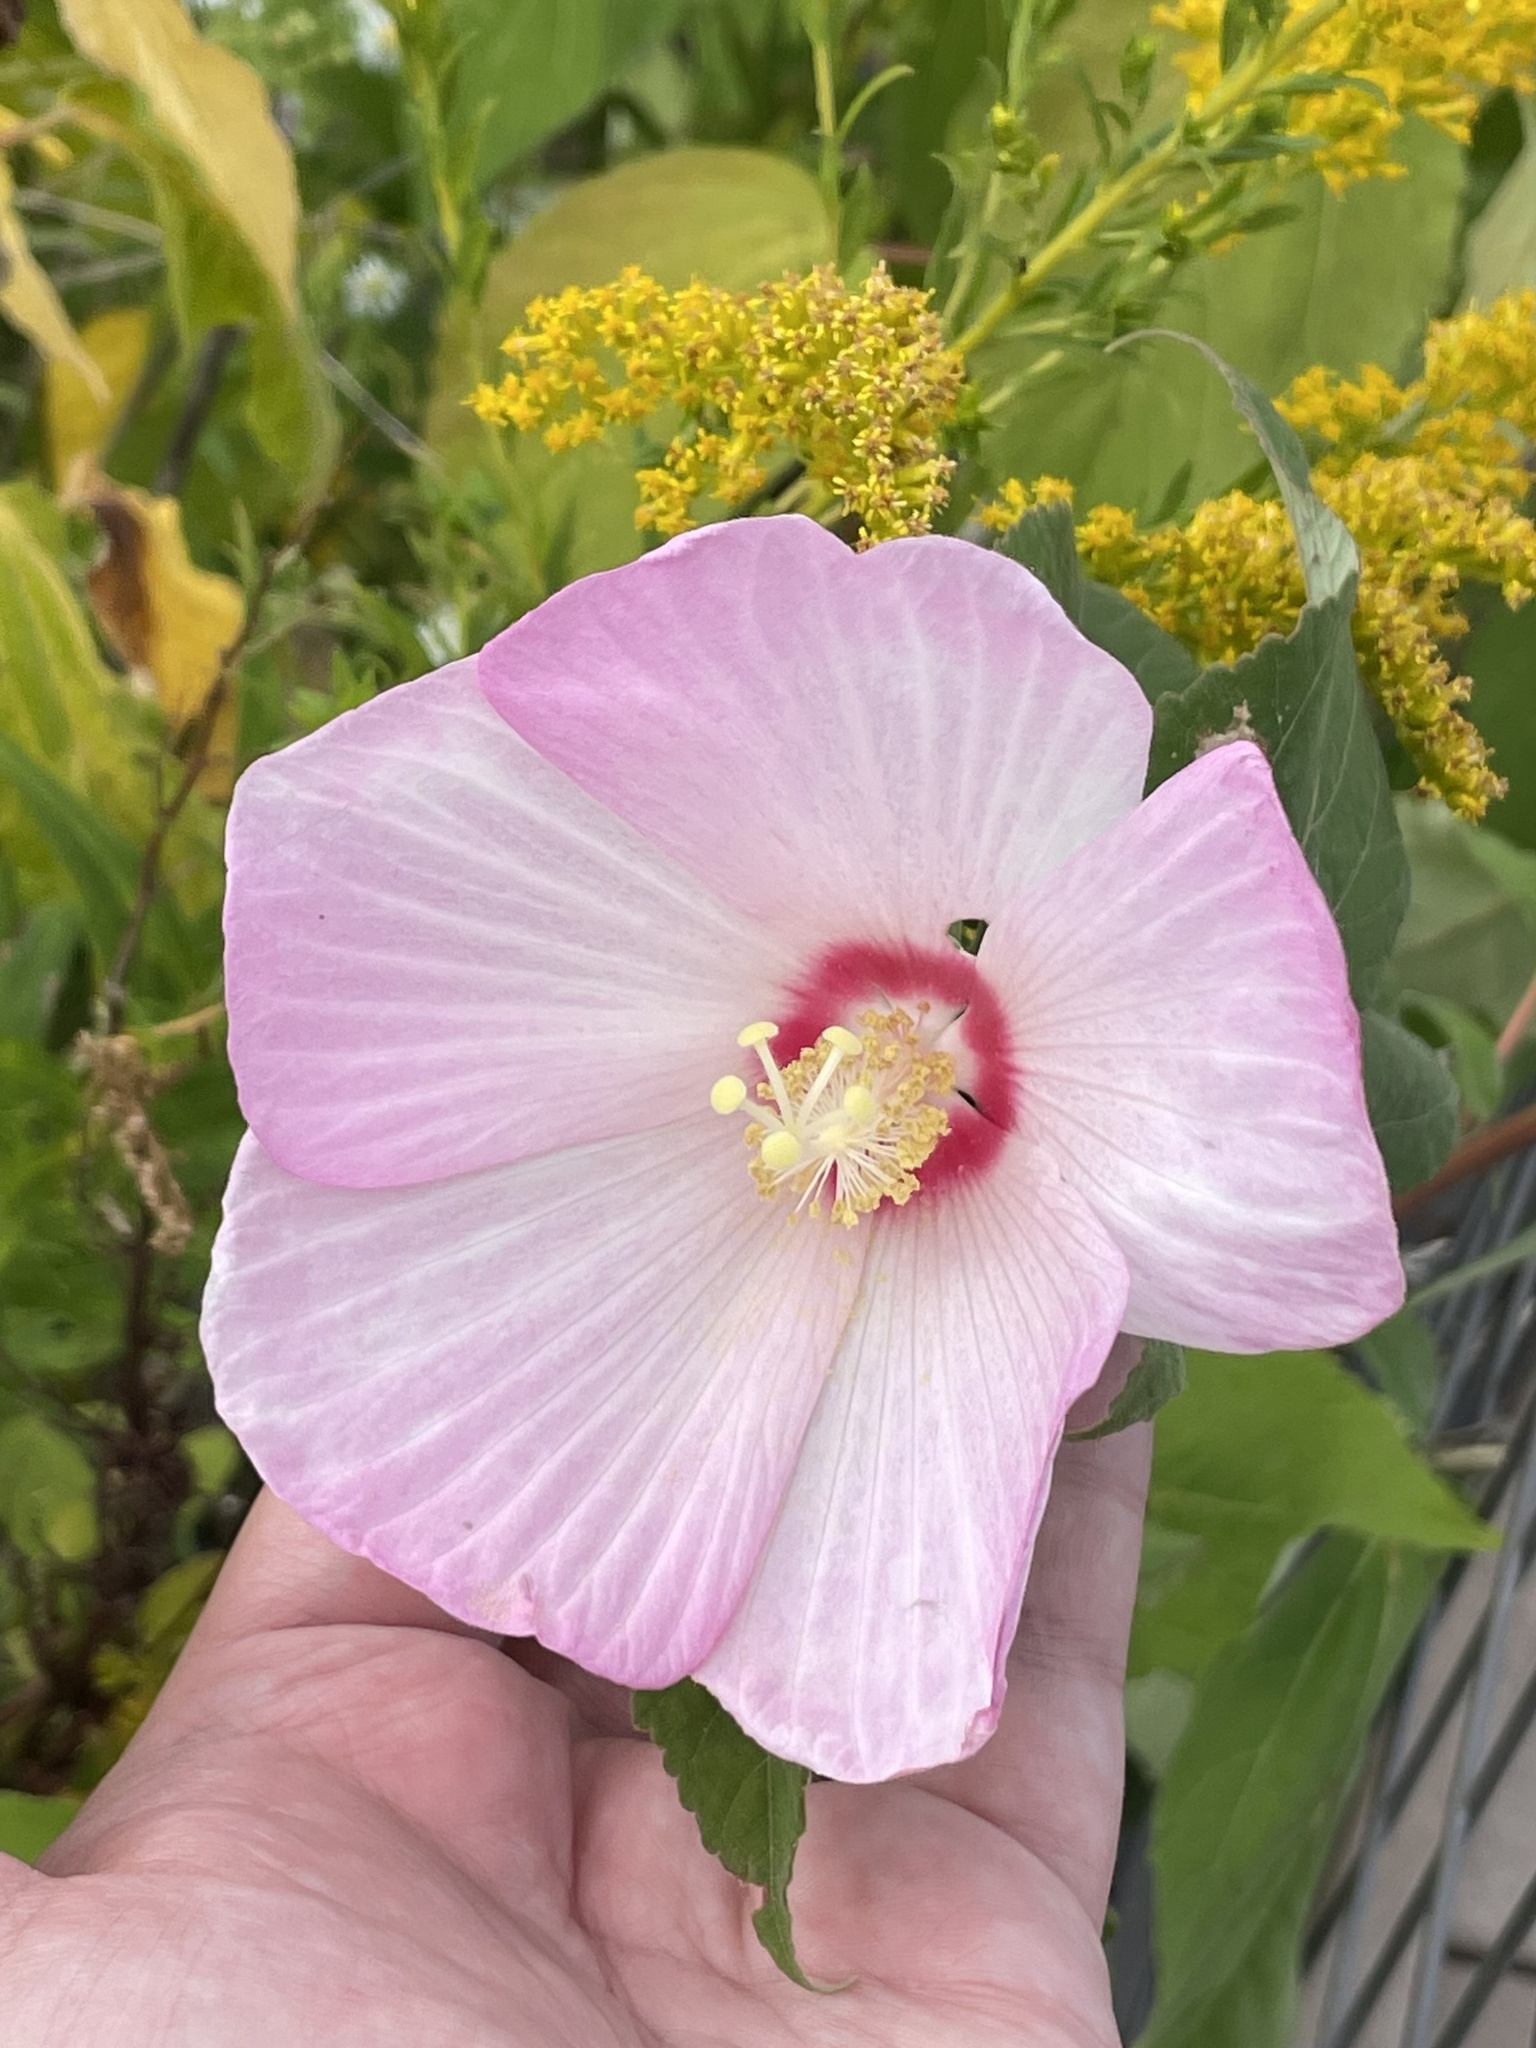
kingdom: Plantae
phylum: Tracheophyta
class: Magnoliopsida
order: Malvales
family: Malvaceae
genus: Hibiscus
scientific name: Hibiscus moscheutos
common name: Common rose-mallow
